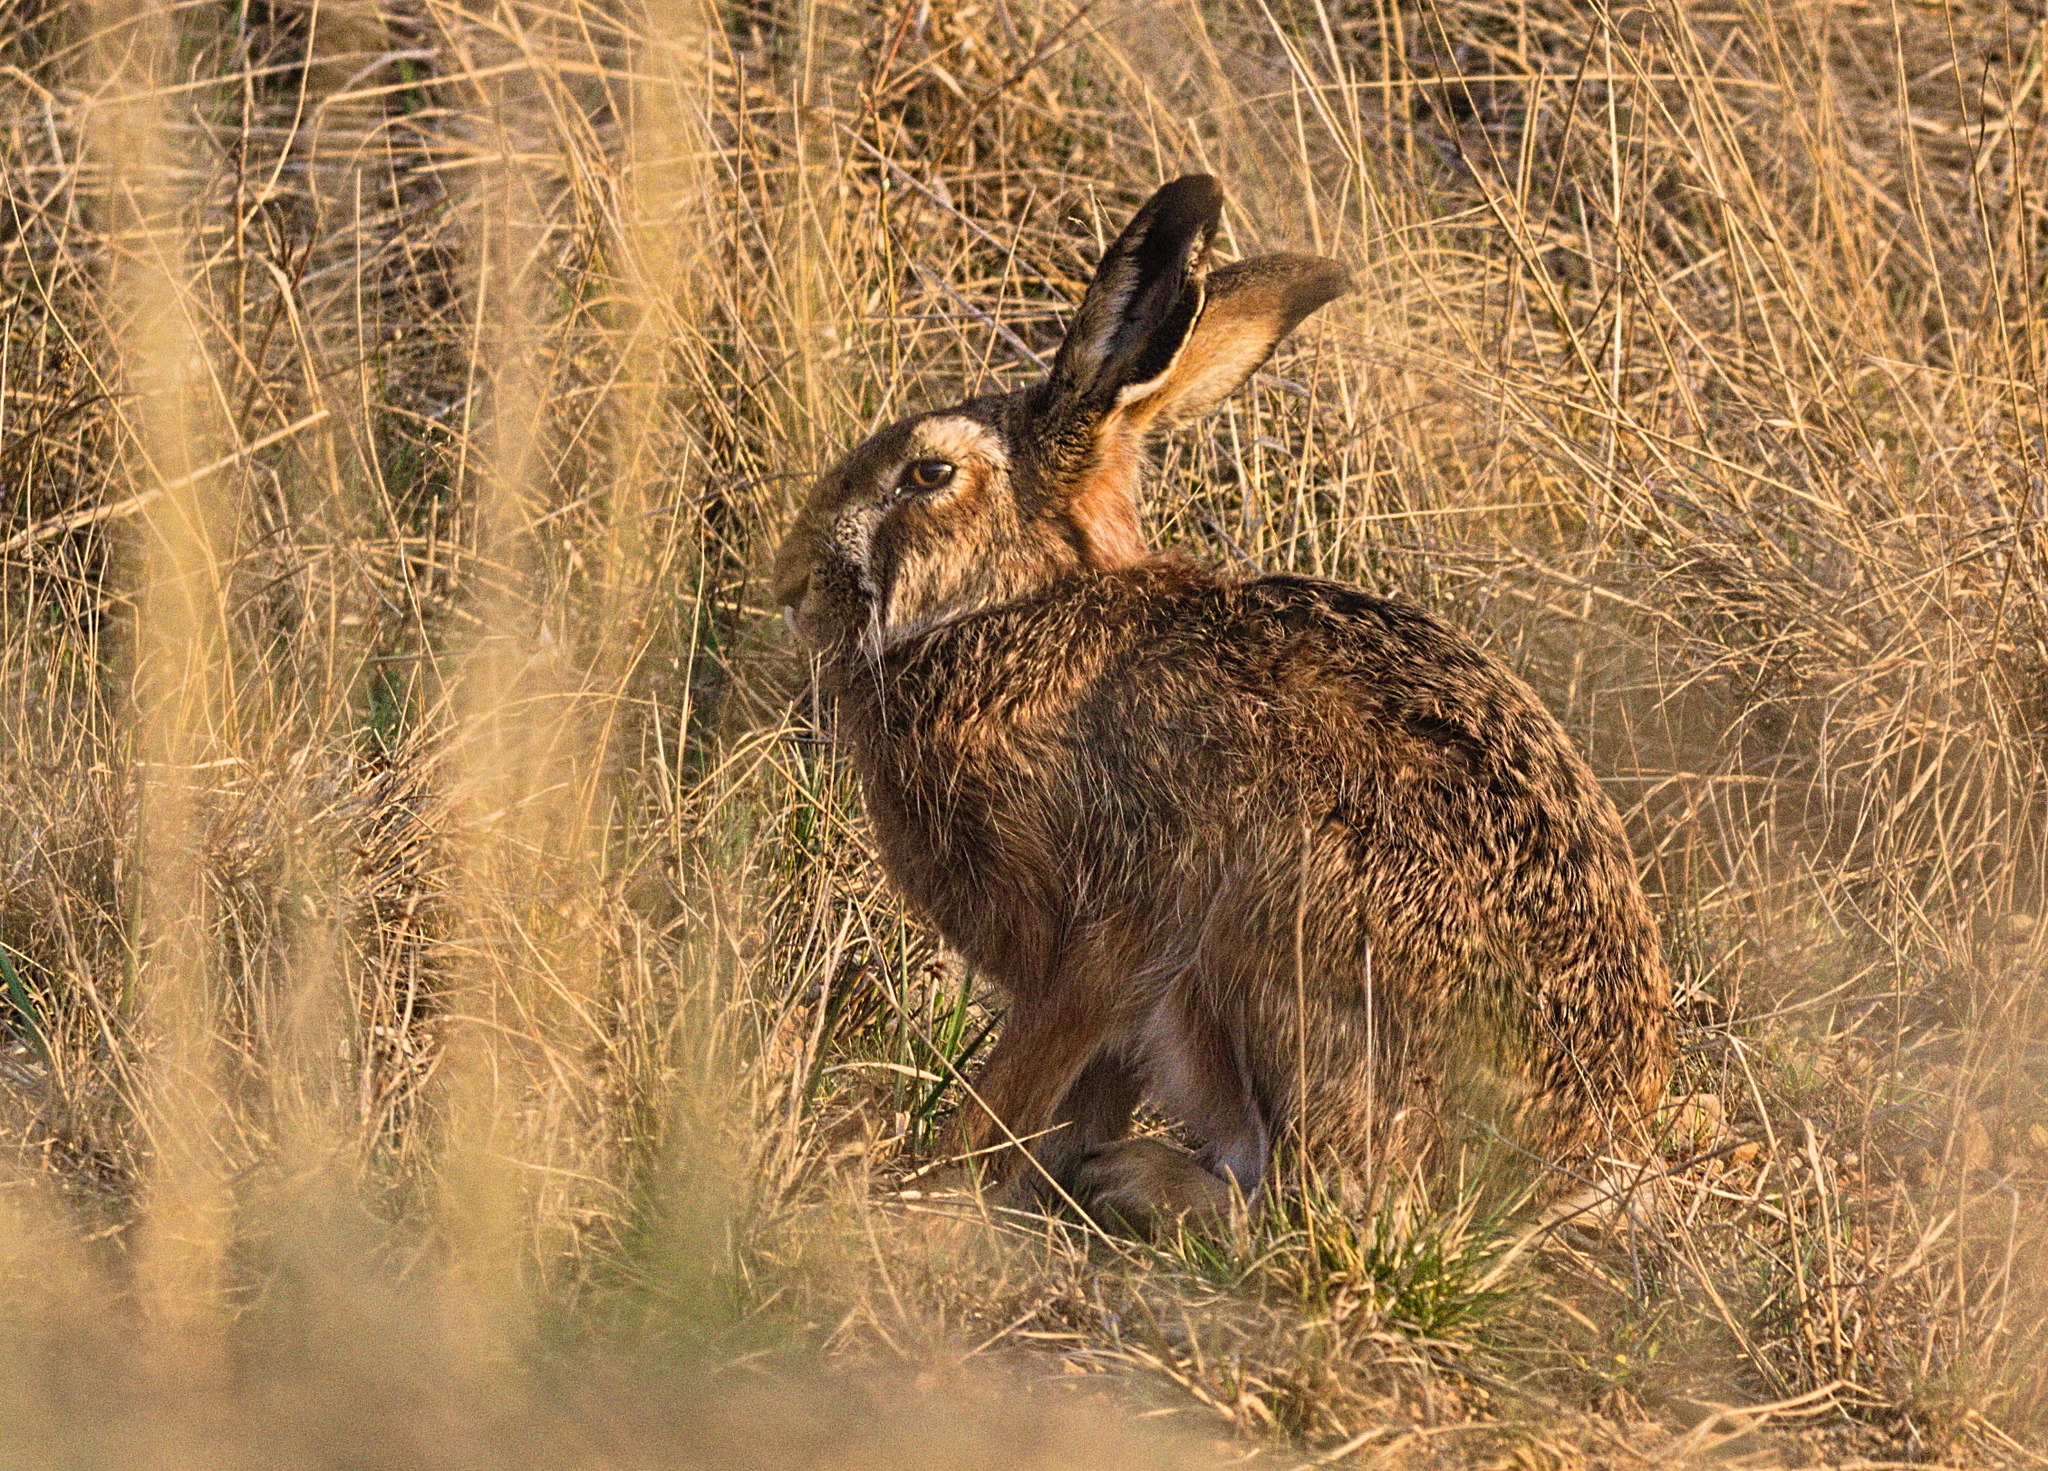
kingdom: Animalia
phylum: Chordata
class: Mammalia
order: Lagomorpha
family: Leporidae
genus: Lepus
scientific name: Lepus europaeus
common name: European hare
